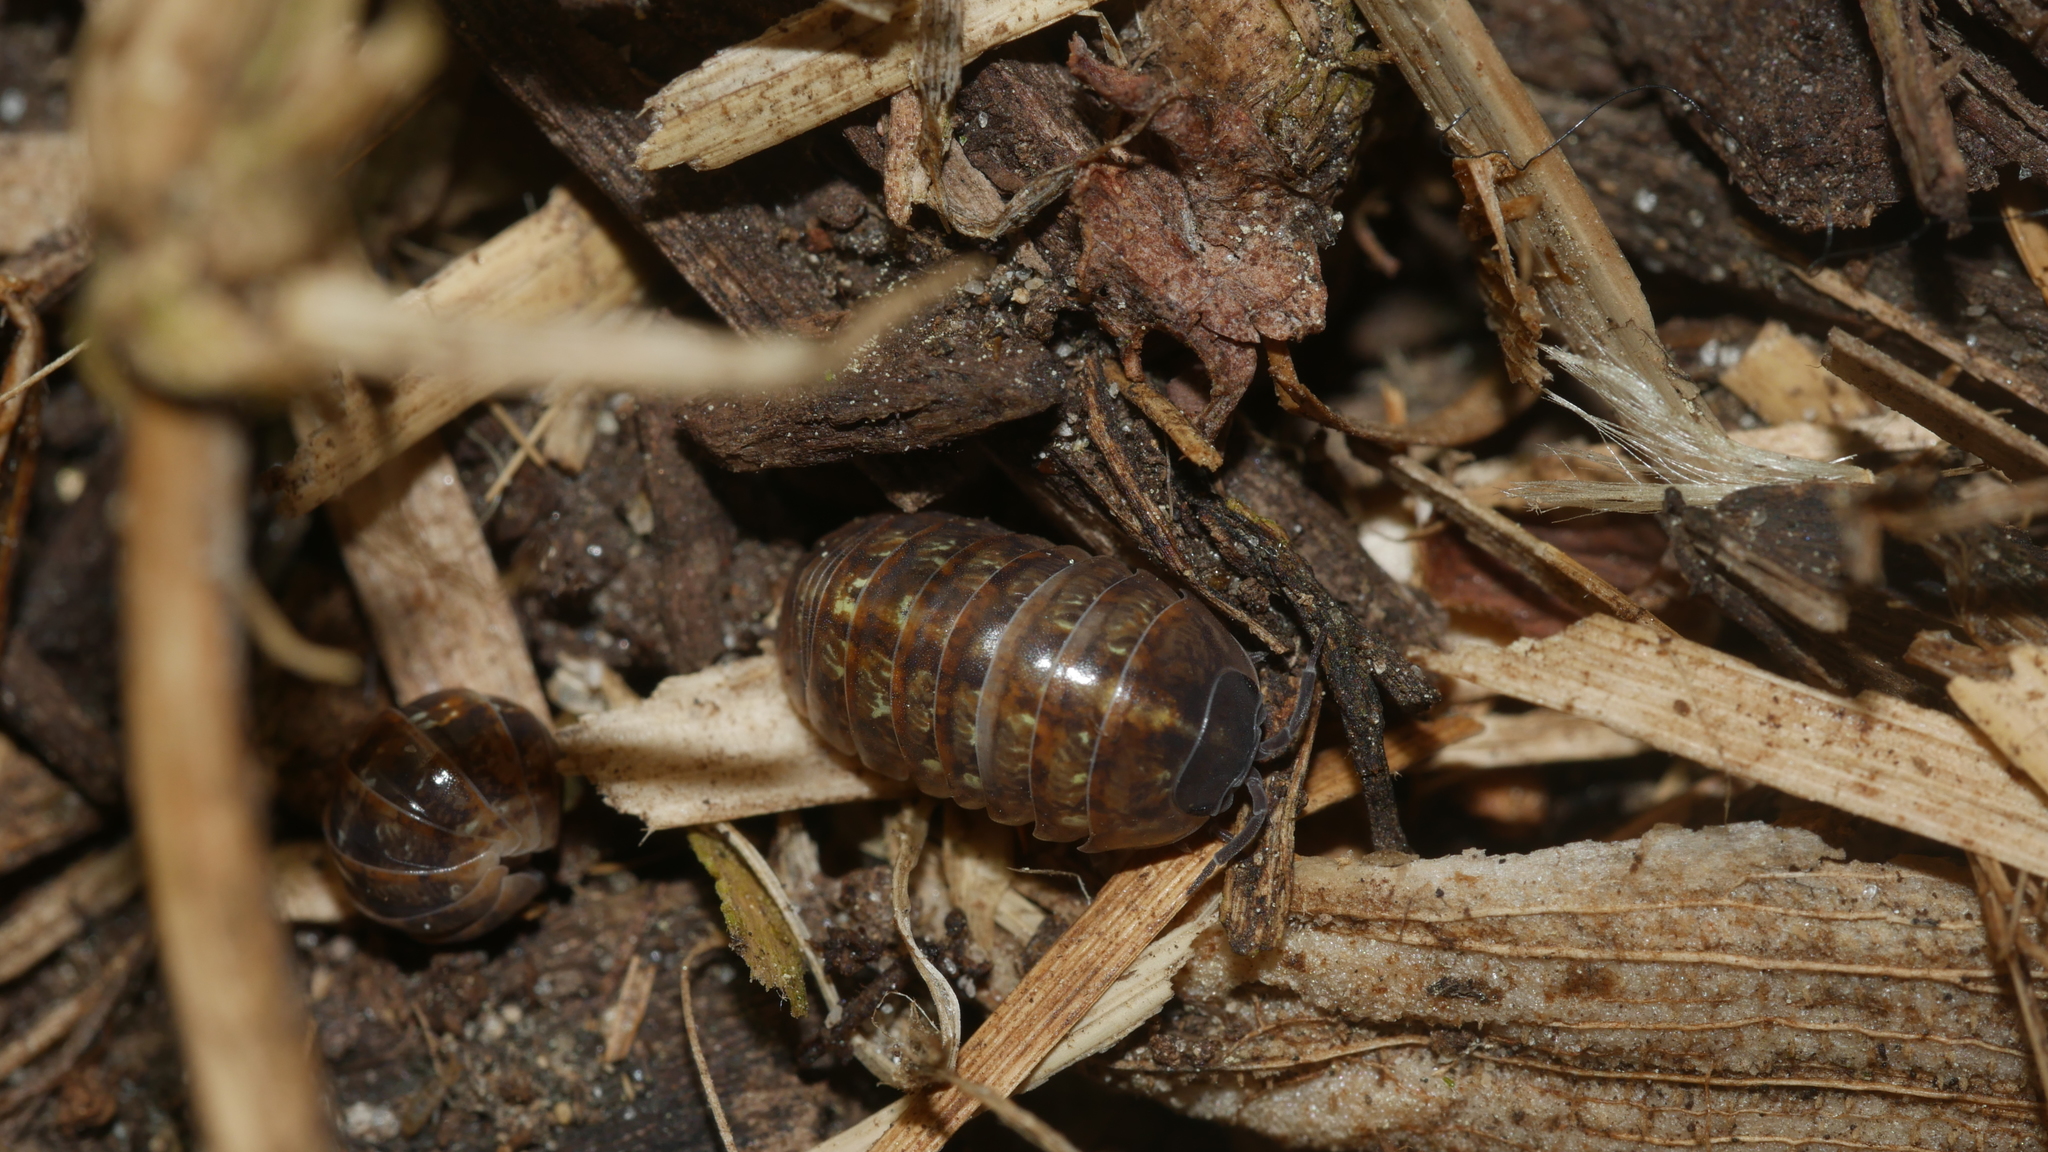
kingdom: Animalia
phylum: Arthropoda
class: Malacostraca
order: Isopoda
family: Armadillidiidae
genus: Armadillidium
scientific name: Armadillidium vulgare
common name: Common pill woodlouse
